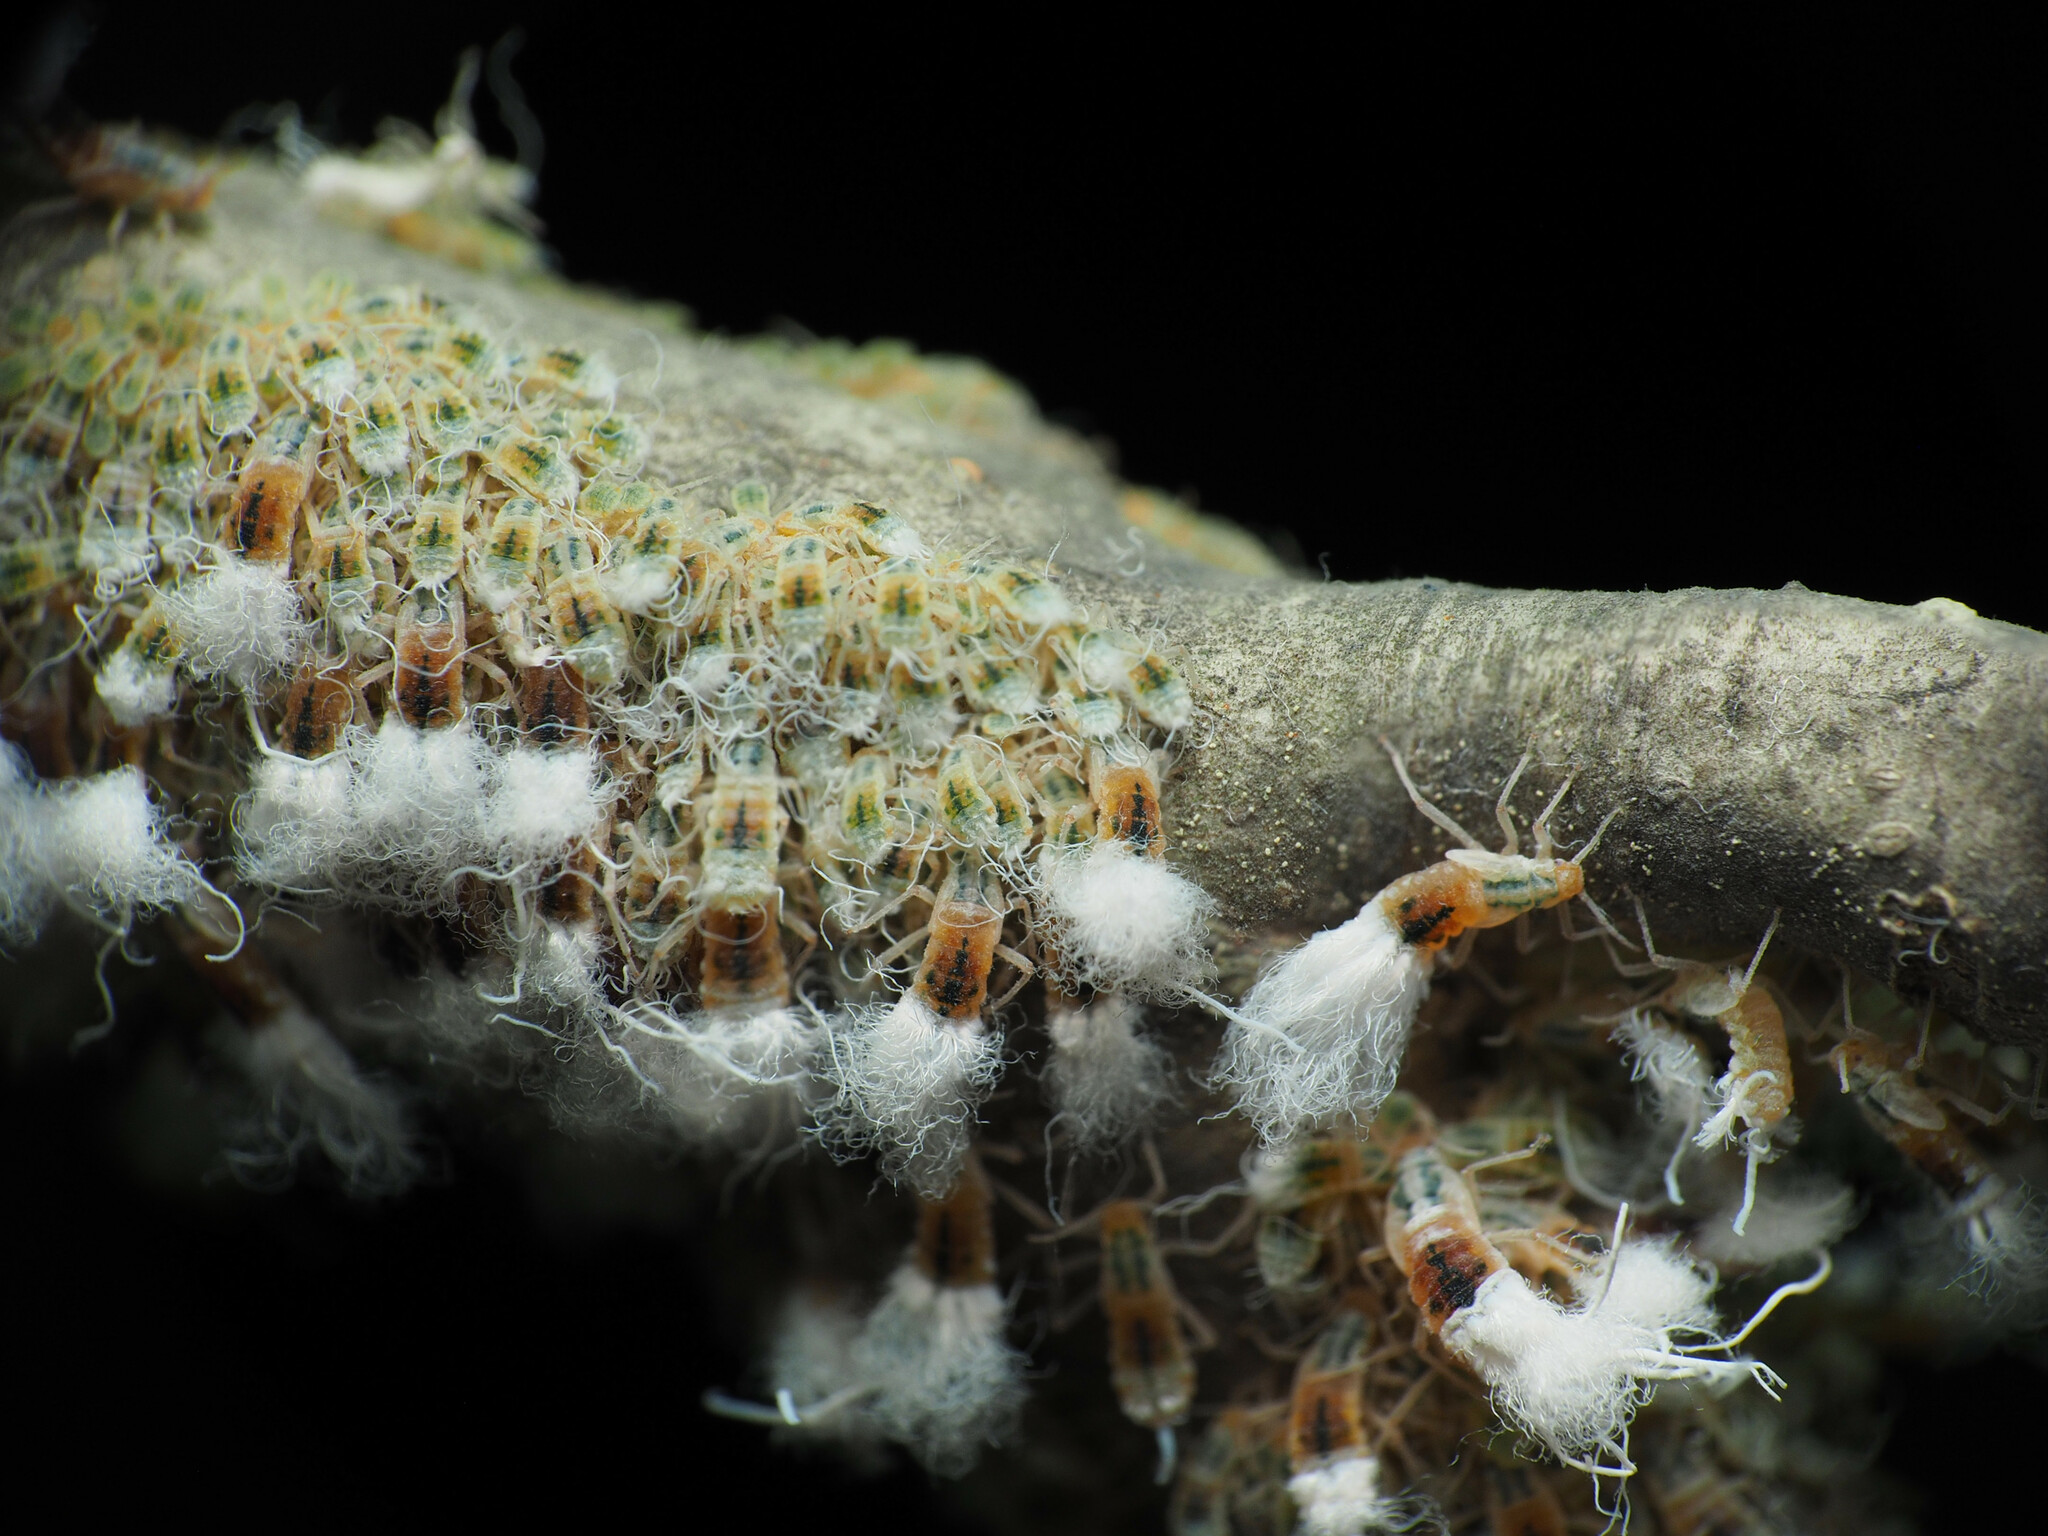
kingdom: Animalia
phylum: Arthropoda
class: Insecta
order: Hemiptera
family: Aphididae
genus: Grylloprociphilus
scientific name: Grylloprociphilus imbricator
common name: Beech blight aphid
